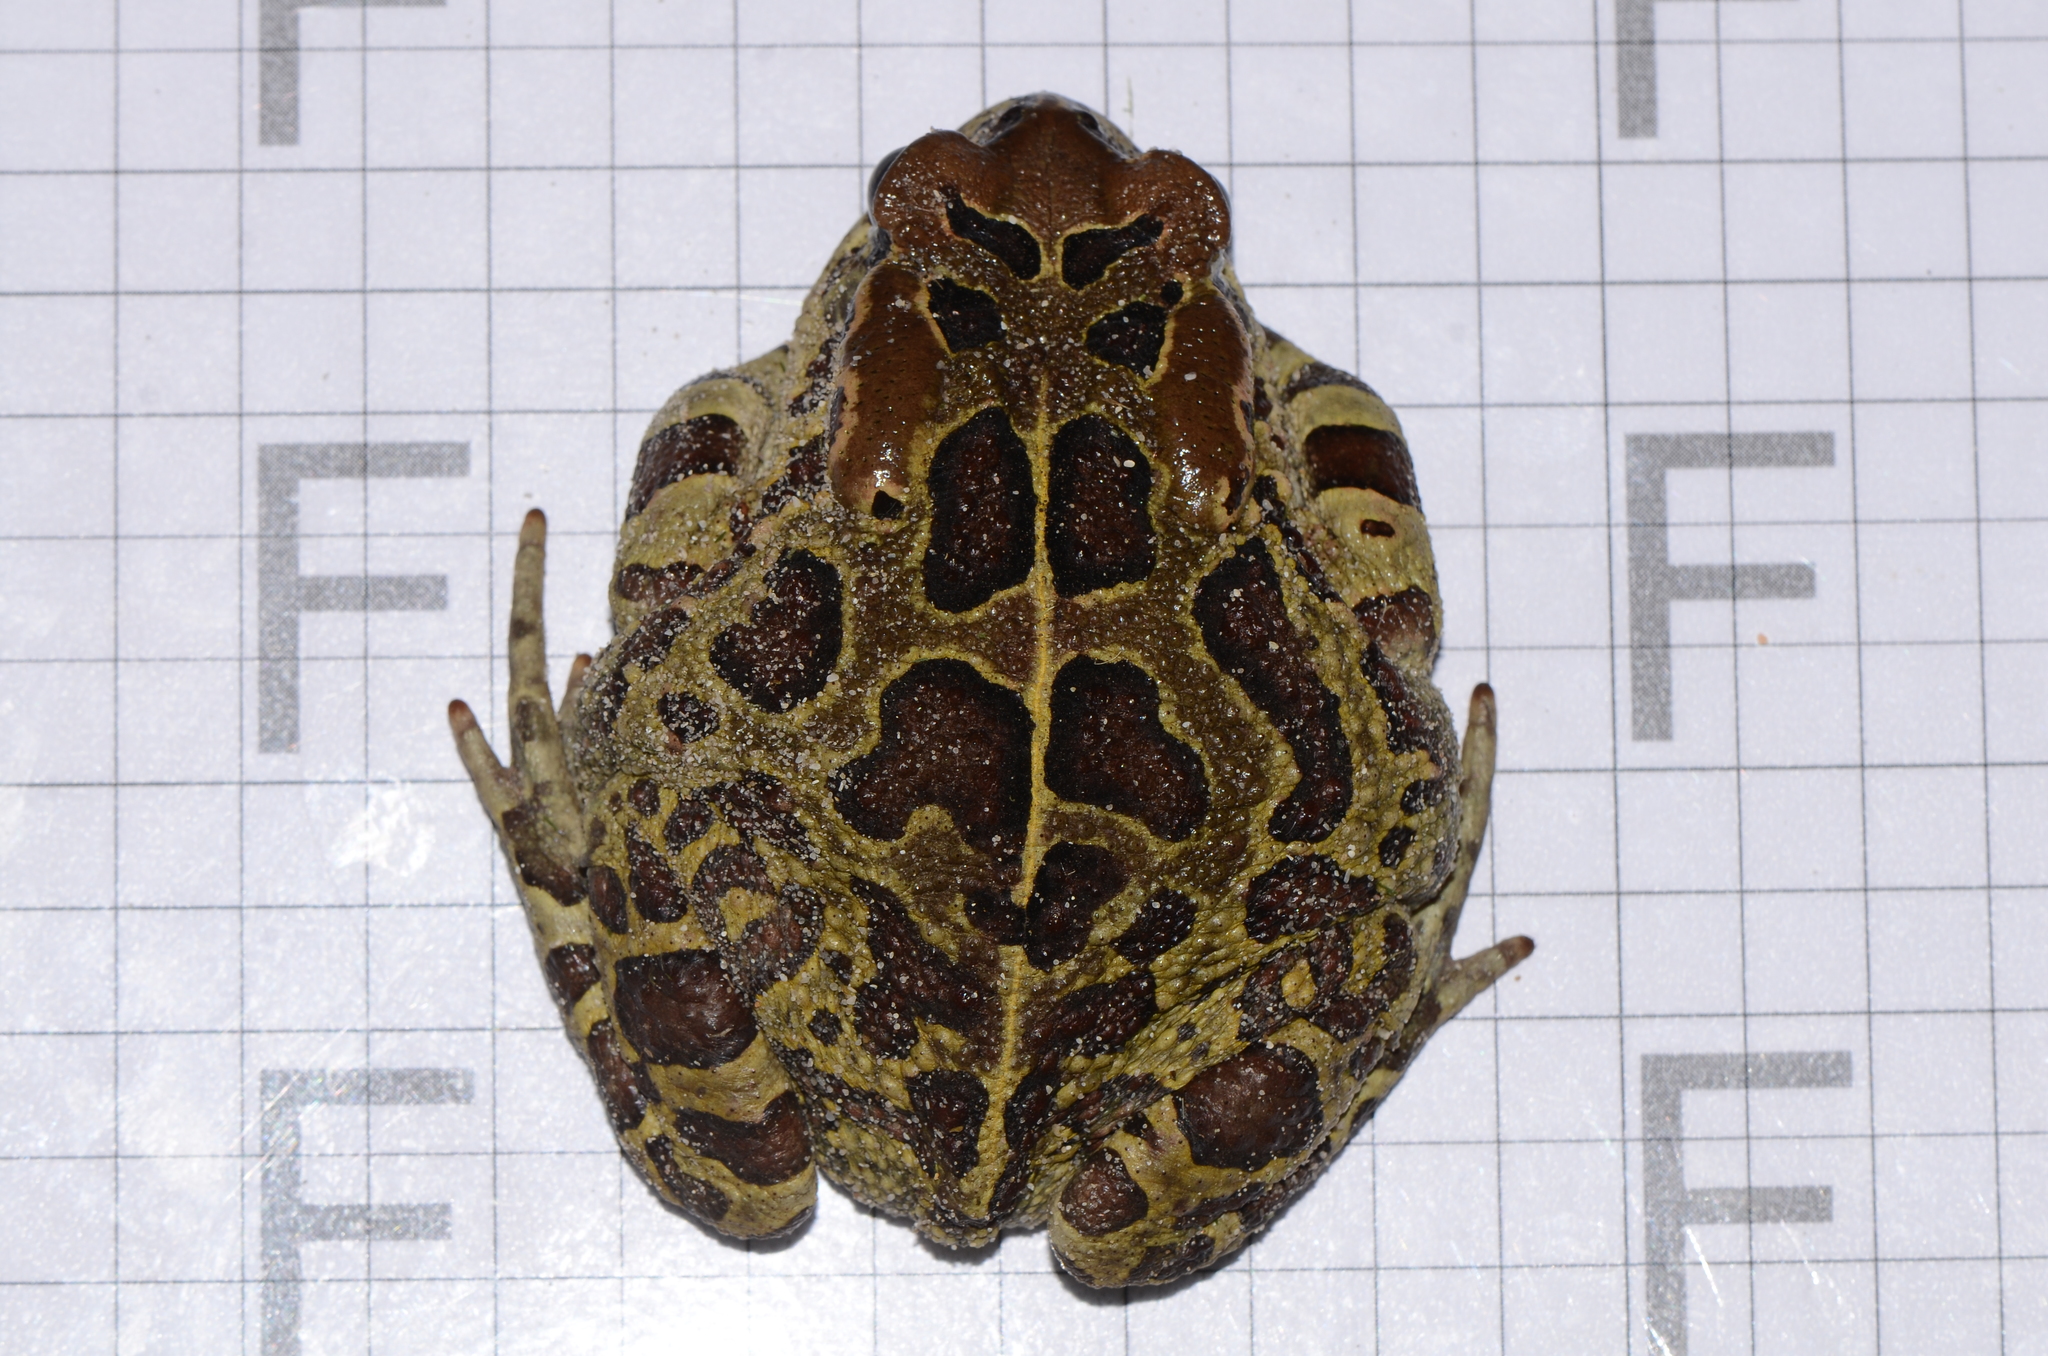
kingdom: Animalia
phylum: Chordata
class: Amphibia
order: Anura
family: Bufonidae
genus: Sclerophrys
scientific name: Sclerophrys pantherina
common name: Panther toad
